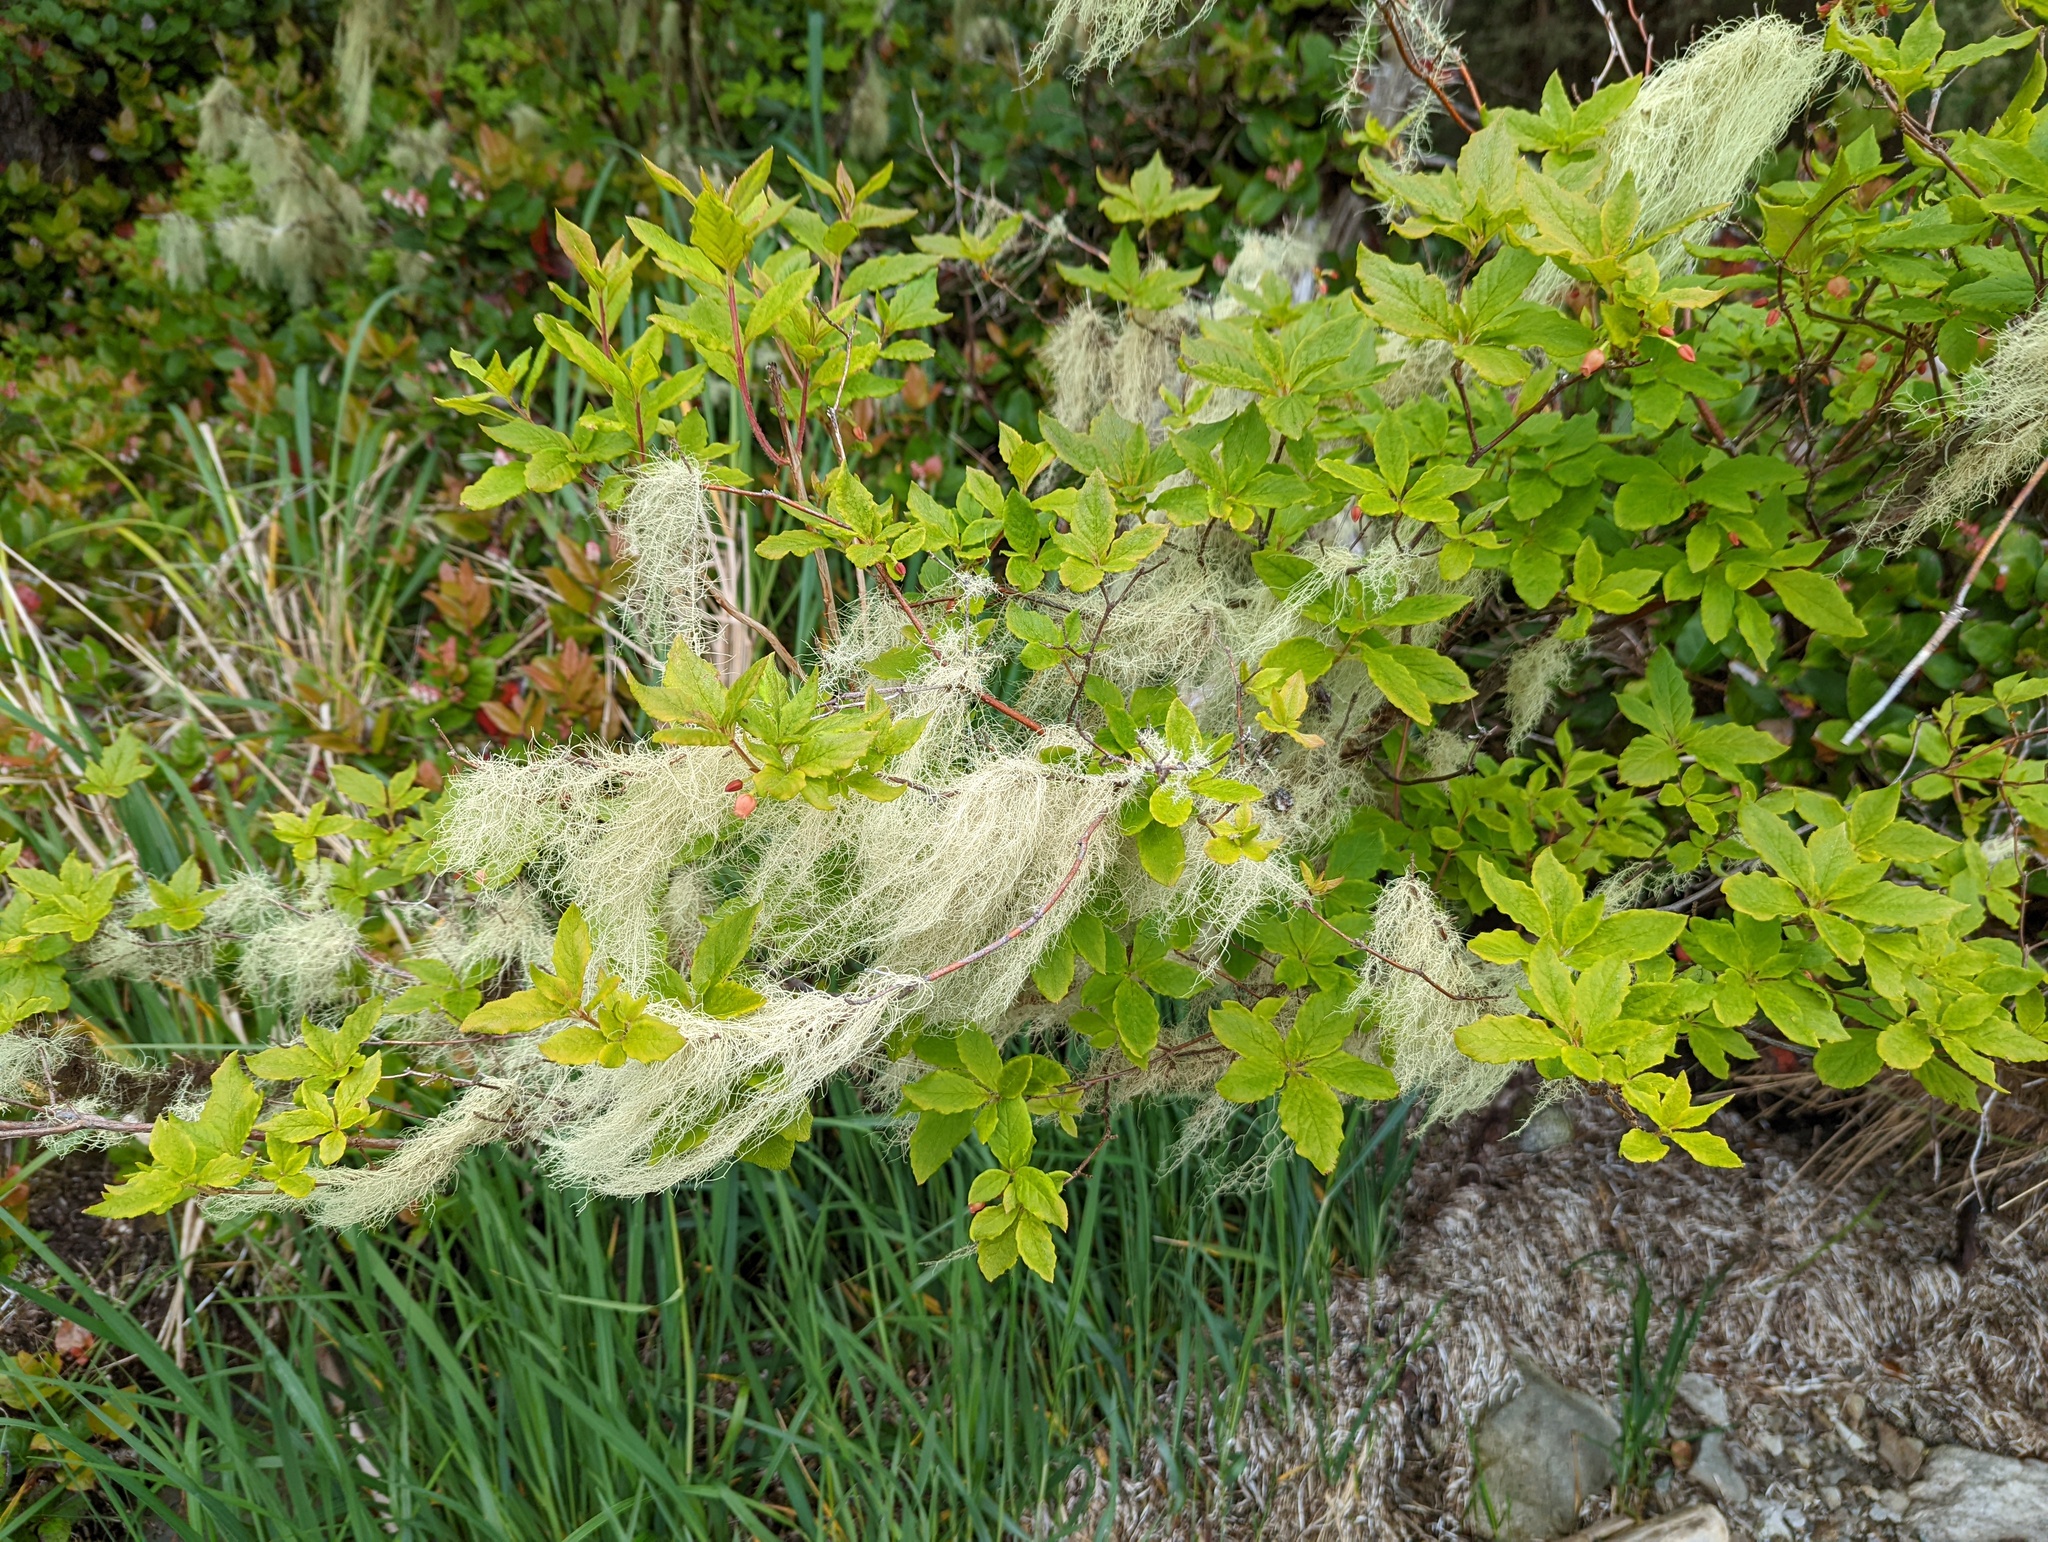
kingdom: Plantae
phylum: Tracheophyta
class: Magnoliopsida
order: Ericales
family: Ericaceae
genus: Rhododendron
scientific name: Rhododendron menziesii
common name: Pacific menziesia
